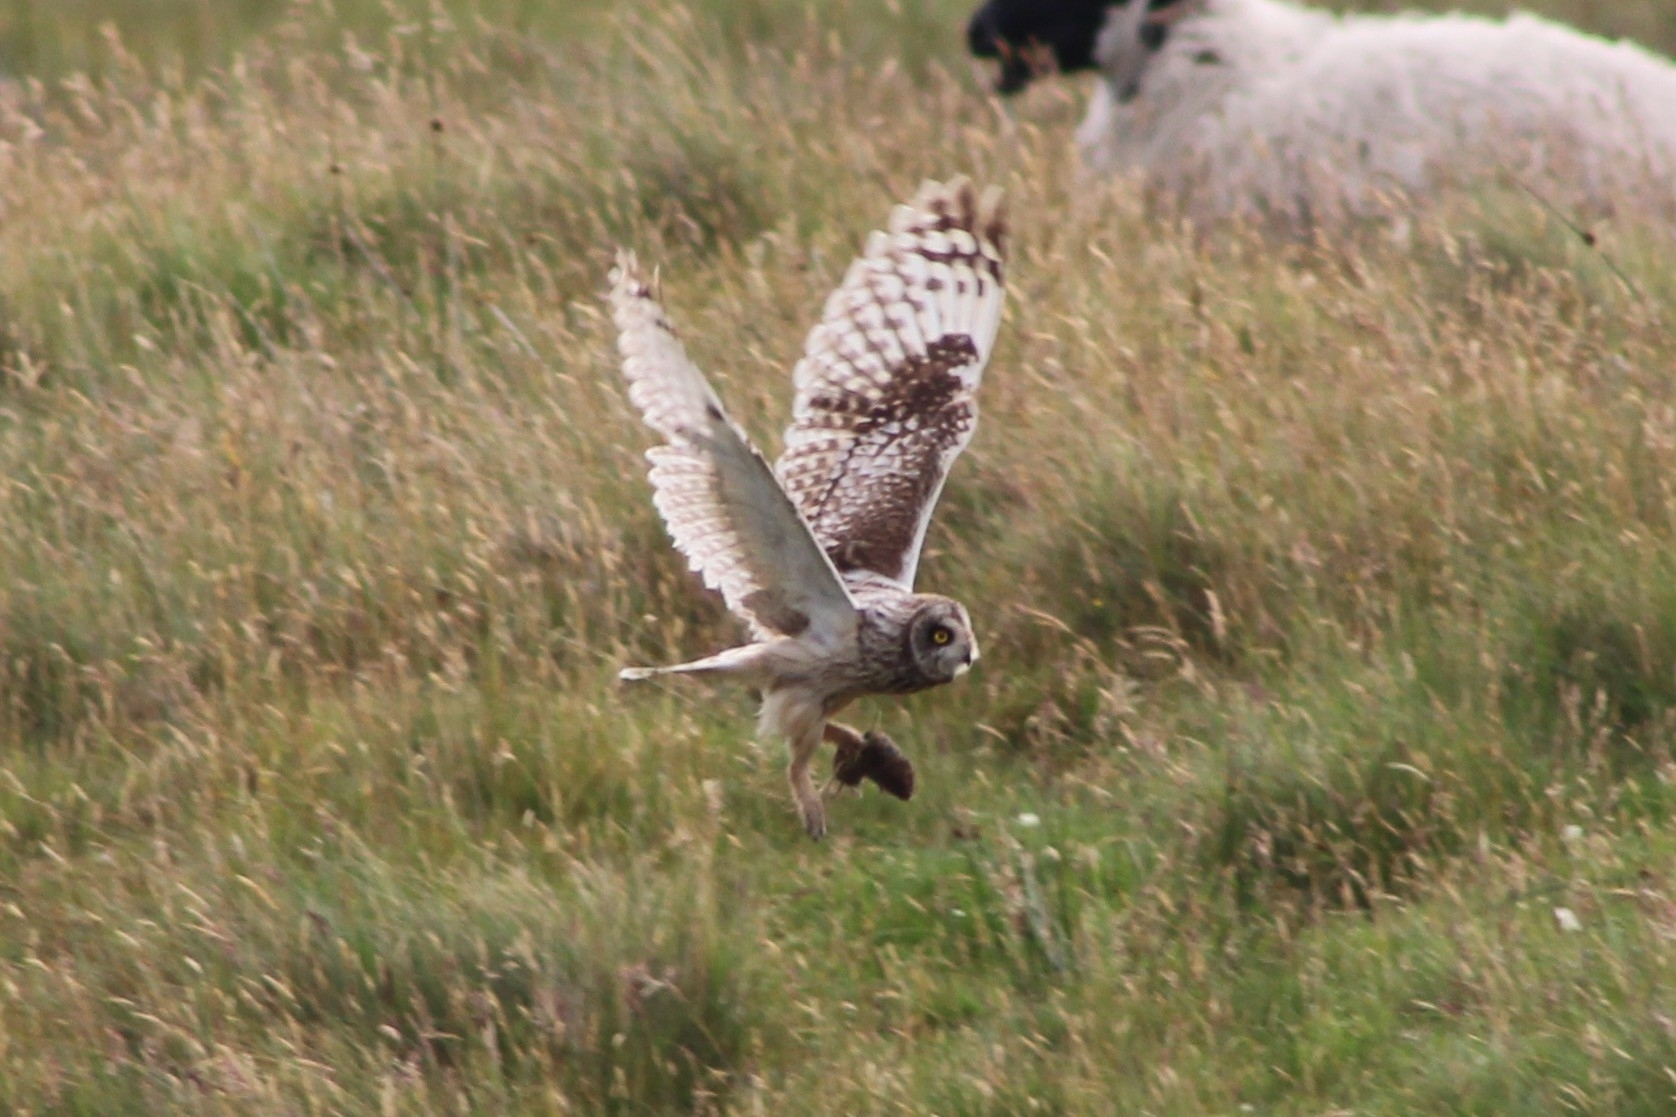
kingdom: Animalia
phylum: Chordata
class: Aves
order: Strigiformes
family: Strigidae
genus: Asio
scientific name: Asio flammeus
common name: Short-eared owl
